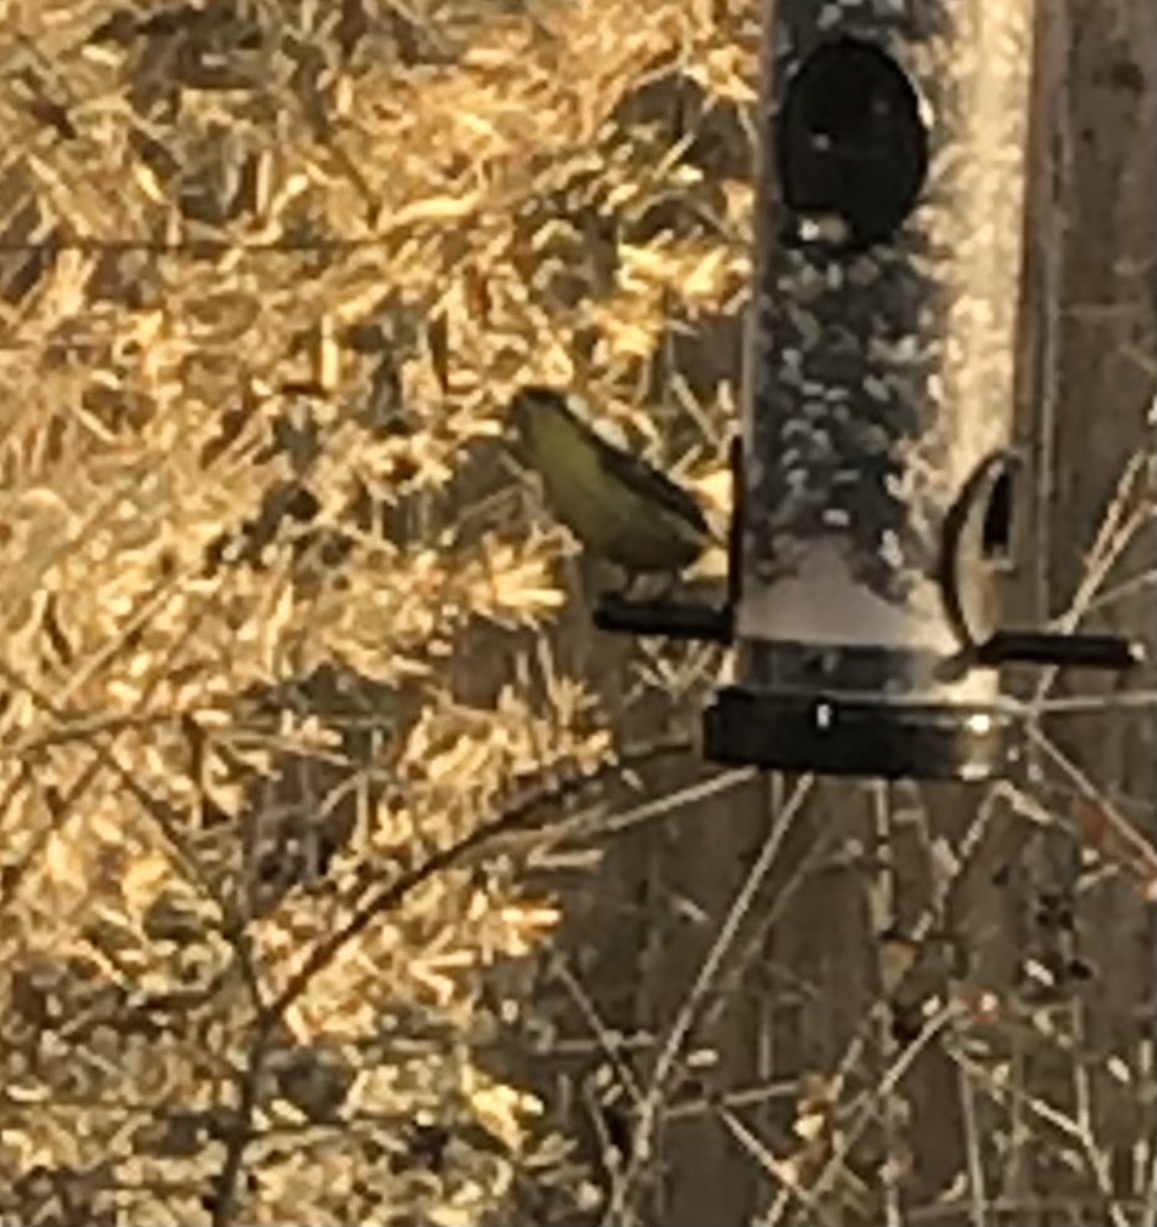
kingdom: Animalia
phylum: Chordata
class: Aves
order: Passeriformes
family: Fringillidae
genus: Spinus
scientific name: Spinus psaltria
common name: Lesser goldfinch
